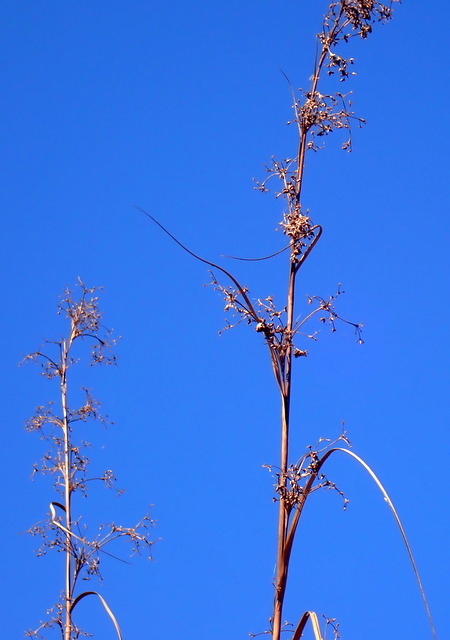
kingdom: Plantae
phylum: Tracheophyta
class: Liliopsida
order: Poales
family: Cyperaceae
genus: Cladium
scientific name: Cladium mariscus
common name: Great fen-sedge
